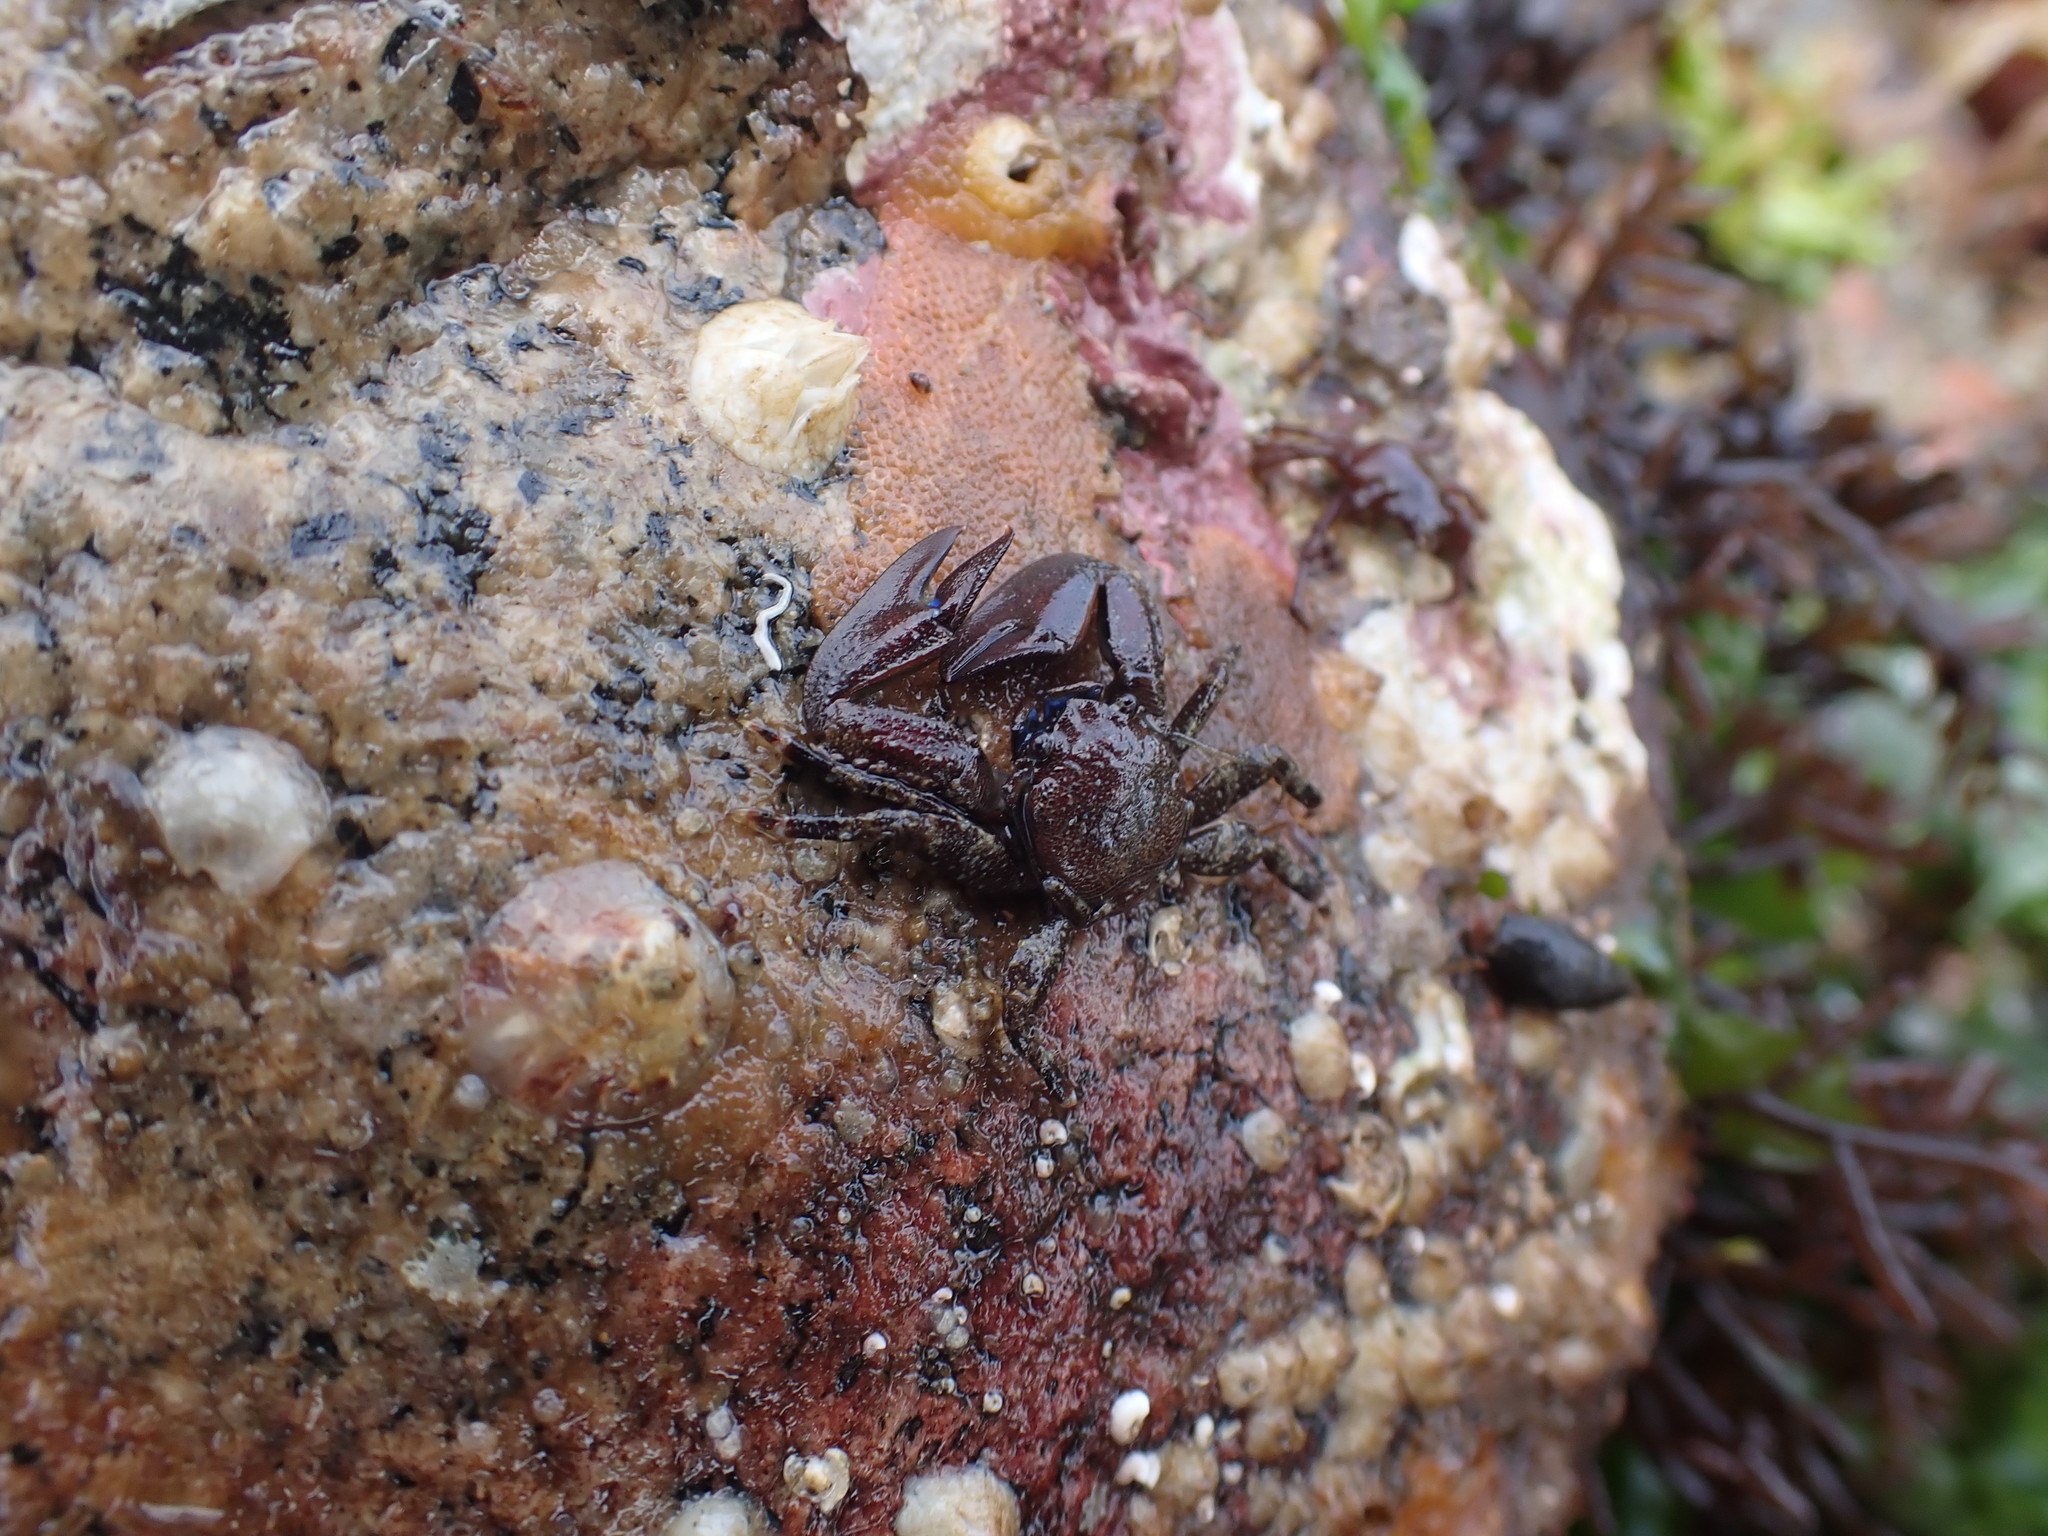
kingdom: Animalia
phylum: Arthropoda
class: Malacostraca
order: Decapoda
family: Porcellanidae
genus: Petrolisthes
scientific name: Petrolisthes eriomerus
